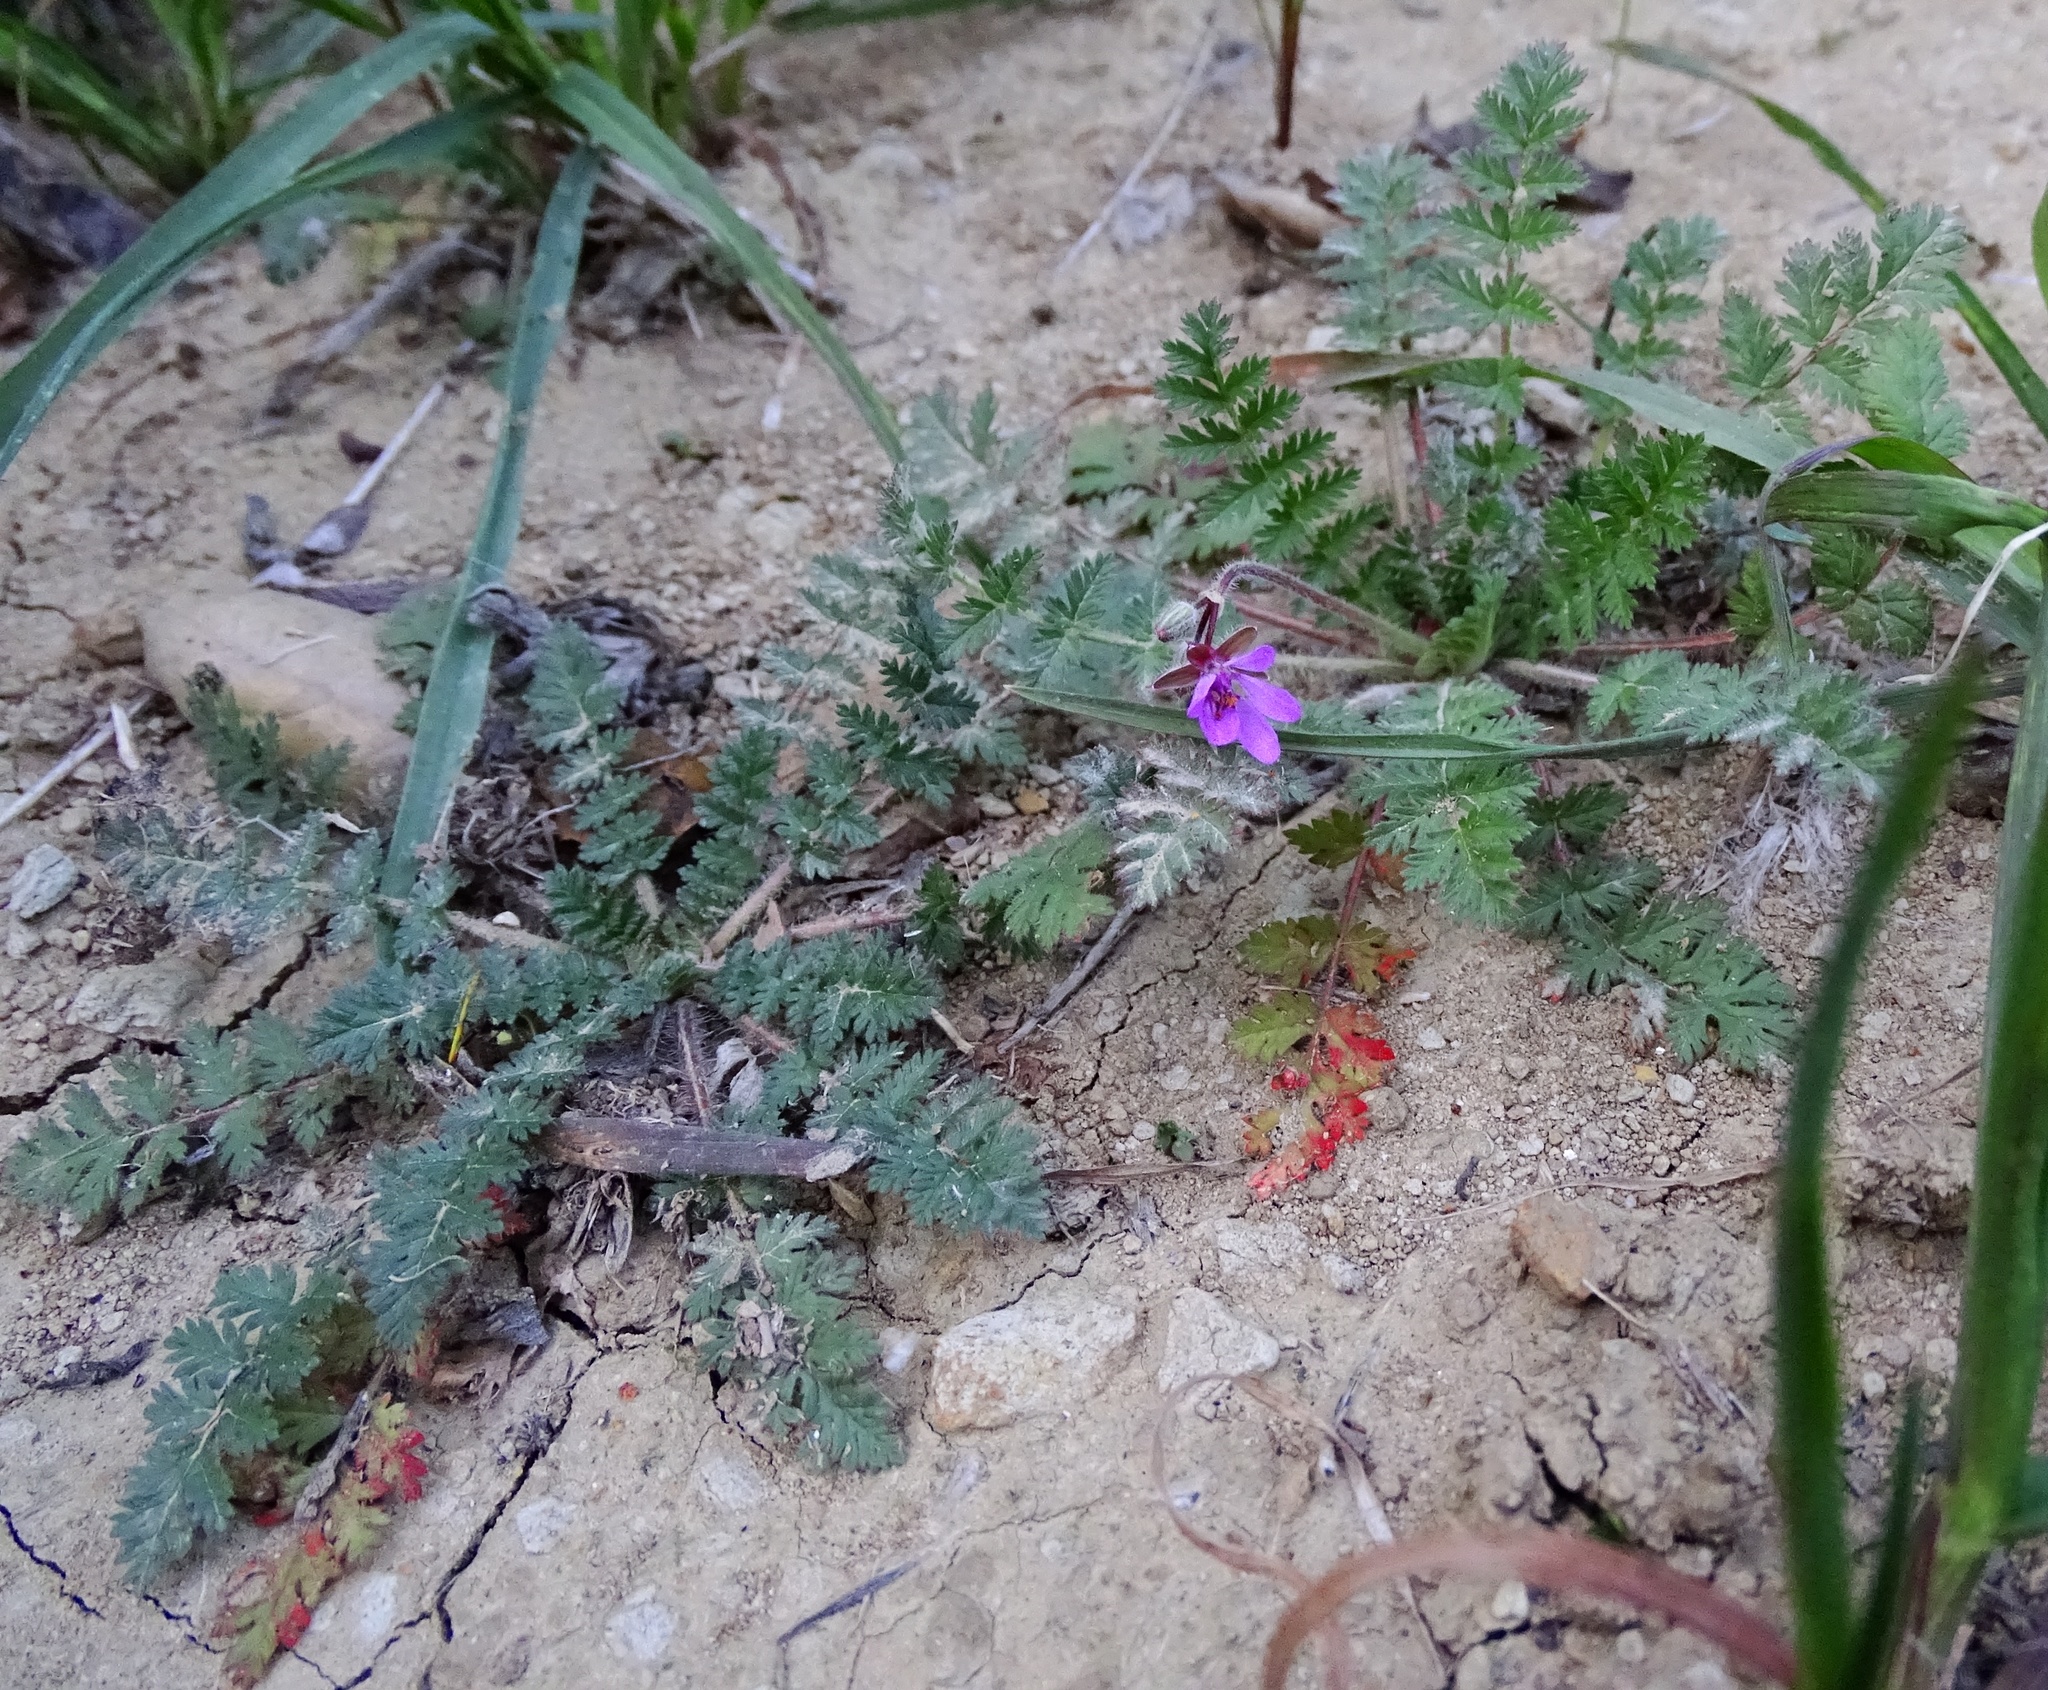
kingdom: Plantae
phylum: Tracheophyta
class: Magnoliopsida
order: Geraniales
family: Geraniaceae
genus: Erodium
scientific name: Erodium cicutarium
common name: Common stork's-bill
